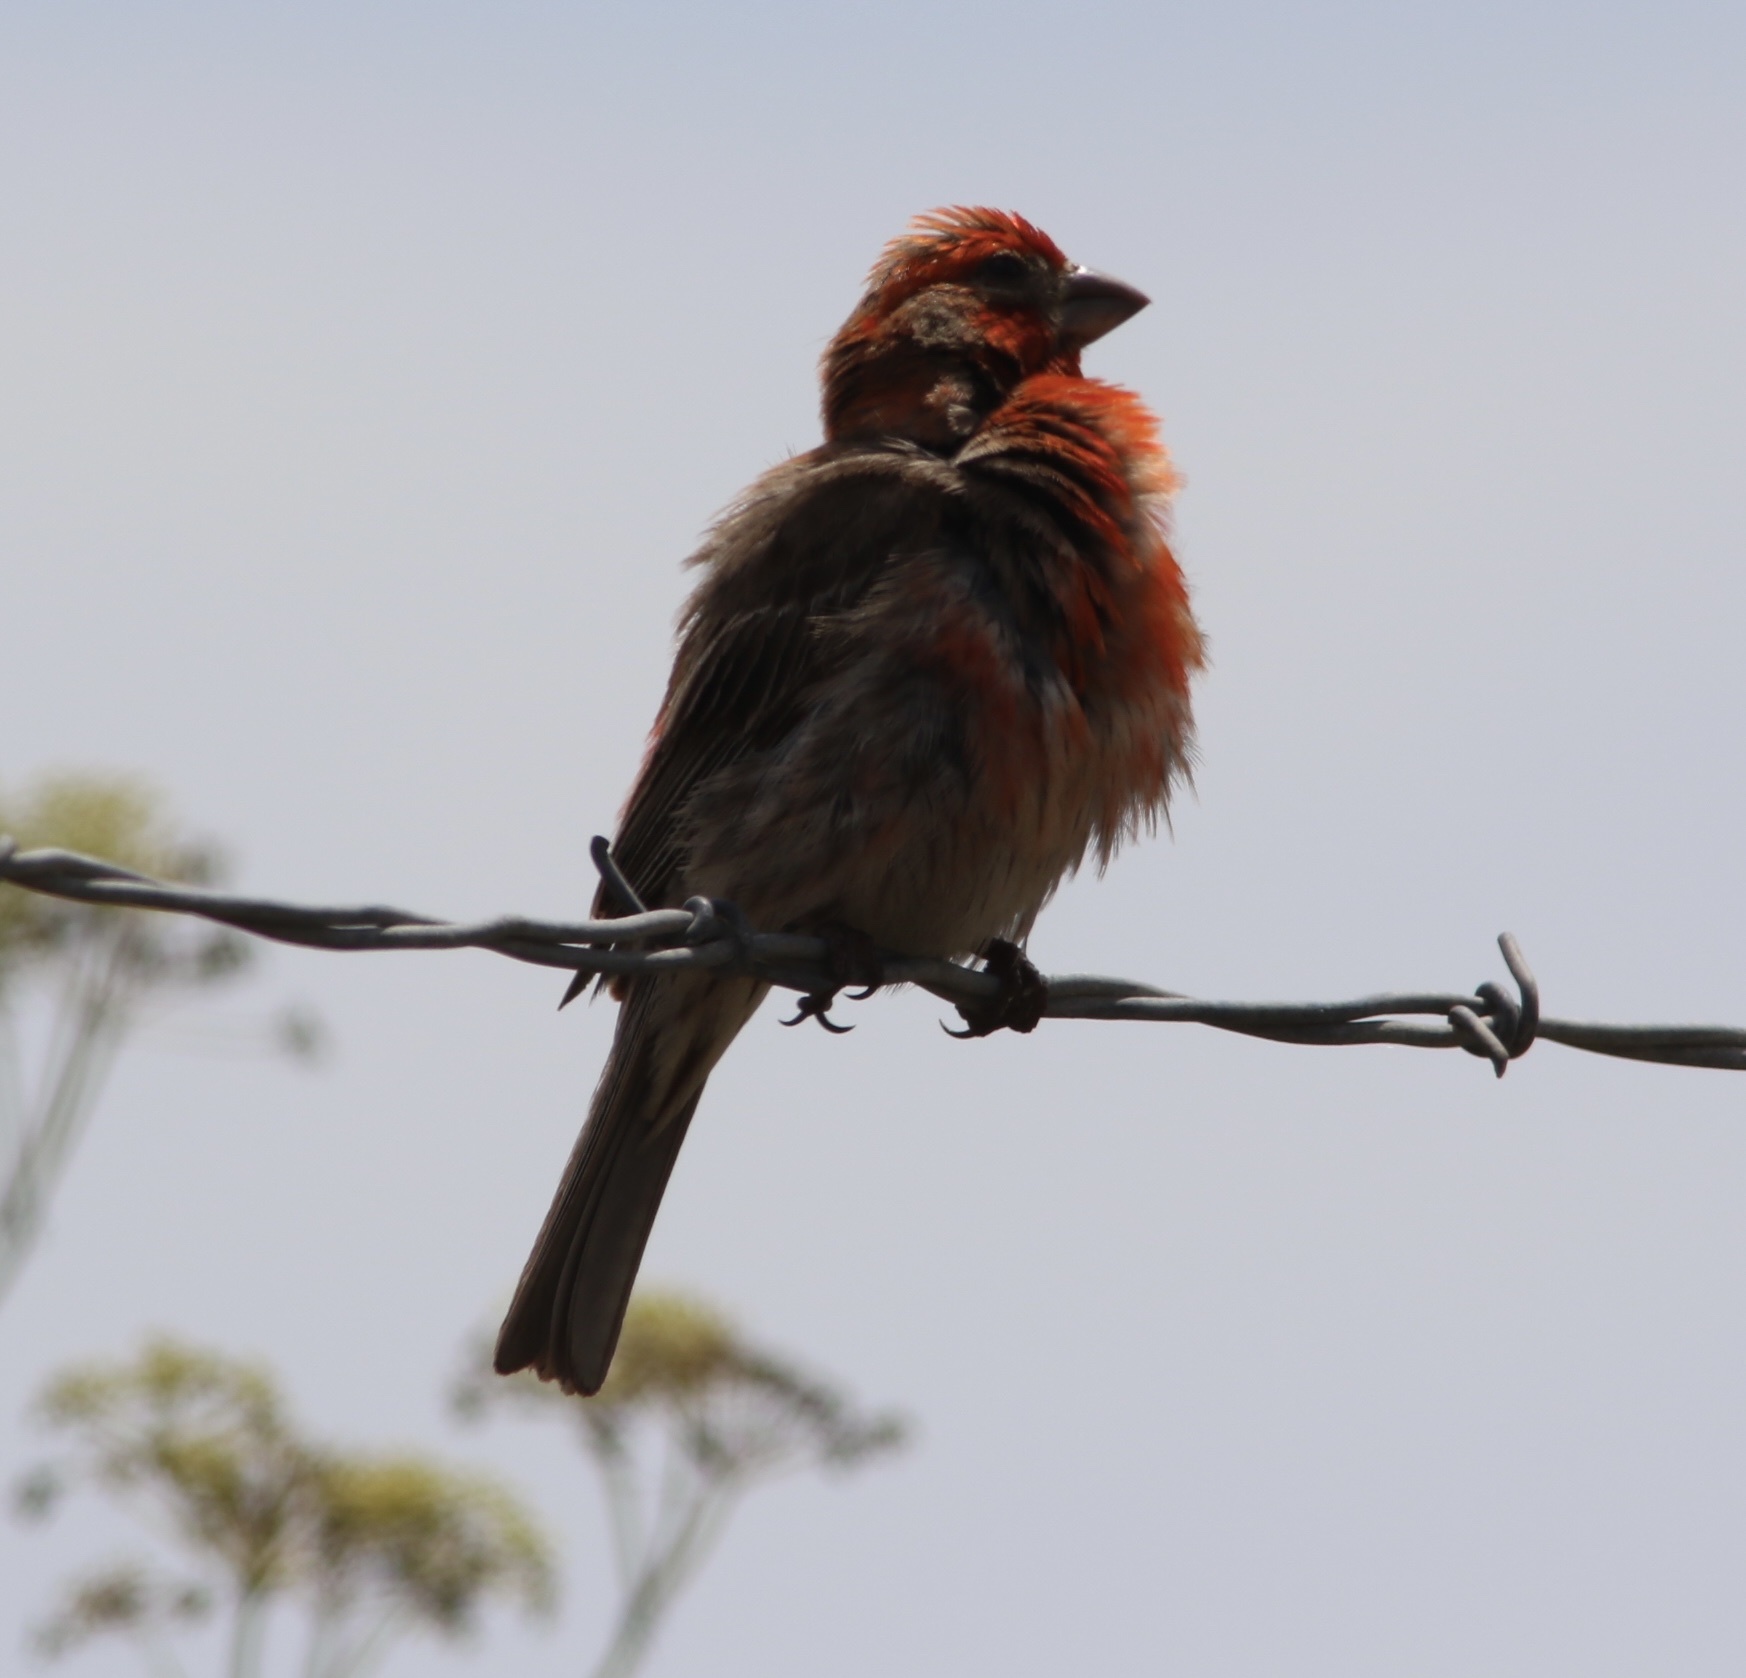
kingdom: Animalia
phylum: Chordata
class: Aves
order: Passeriformes
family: Fringillidae
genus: Haemorhous
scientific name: Haemorhous mexicanus
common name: House finch
